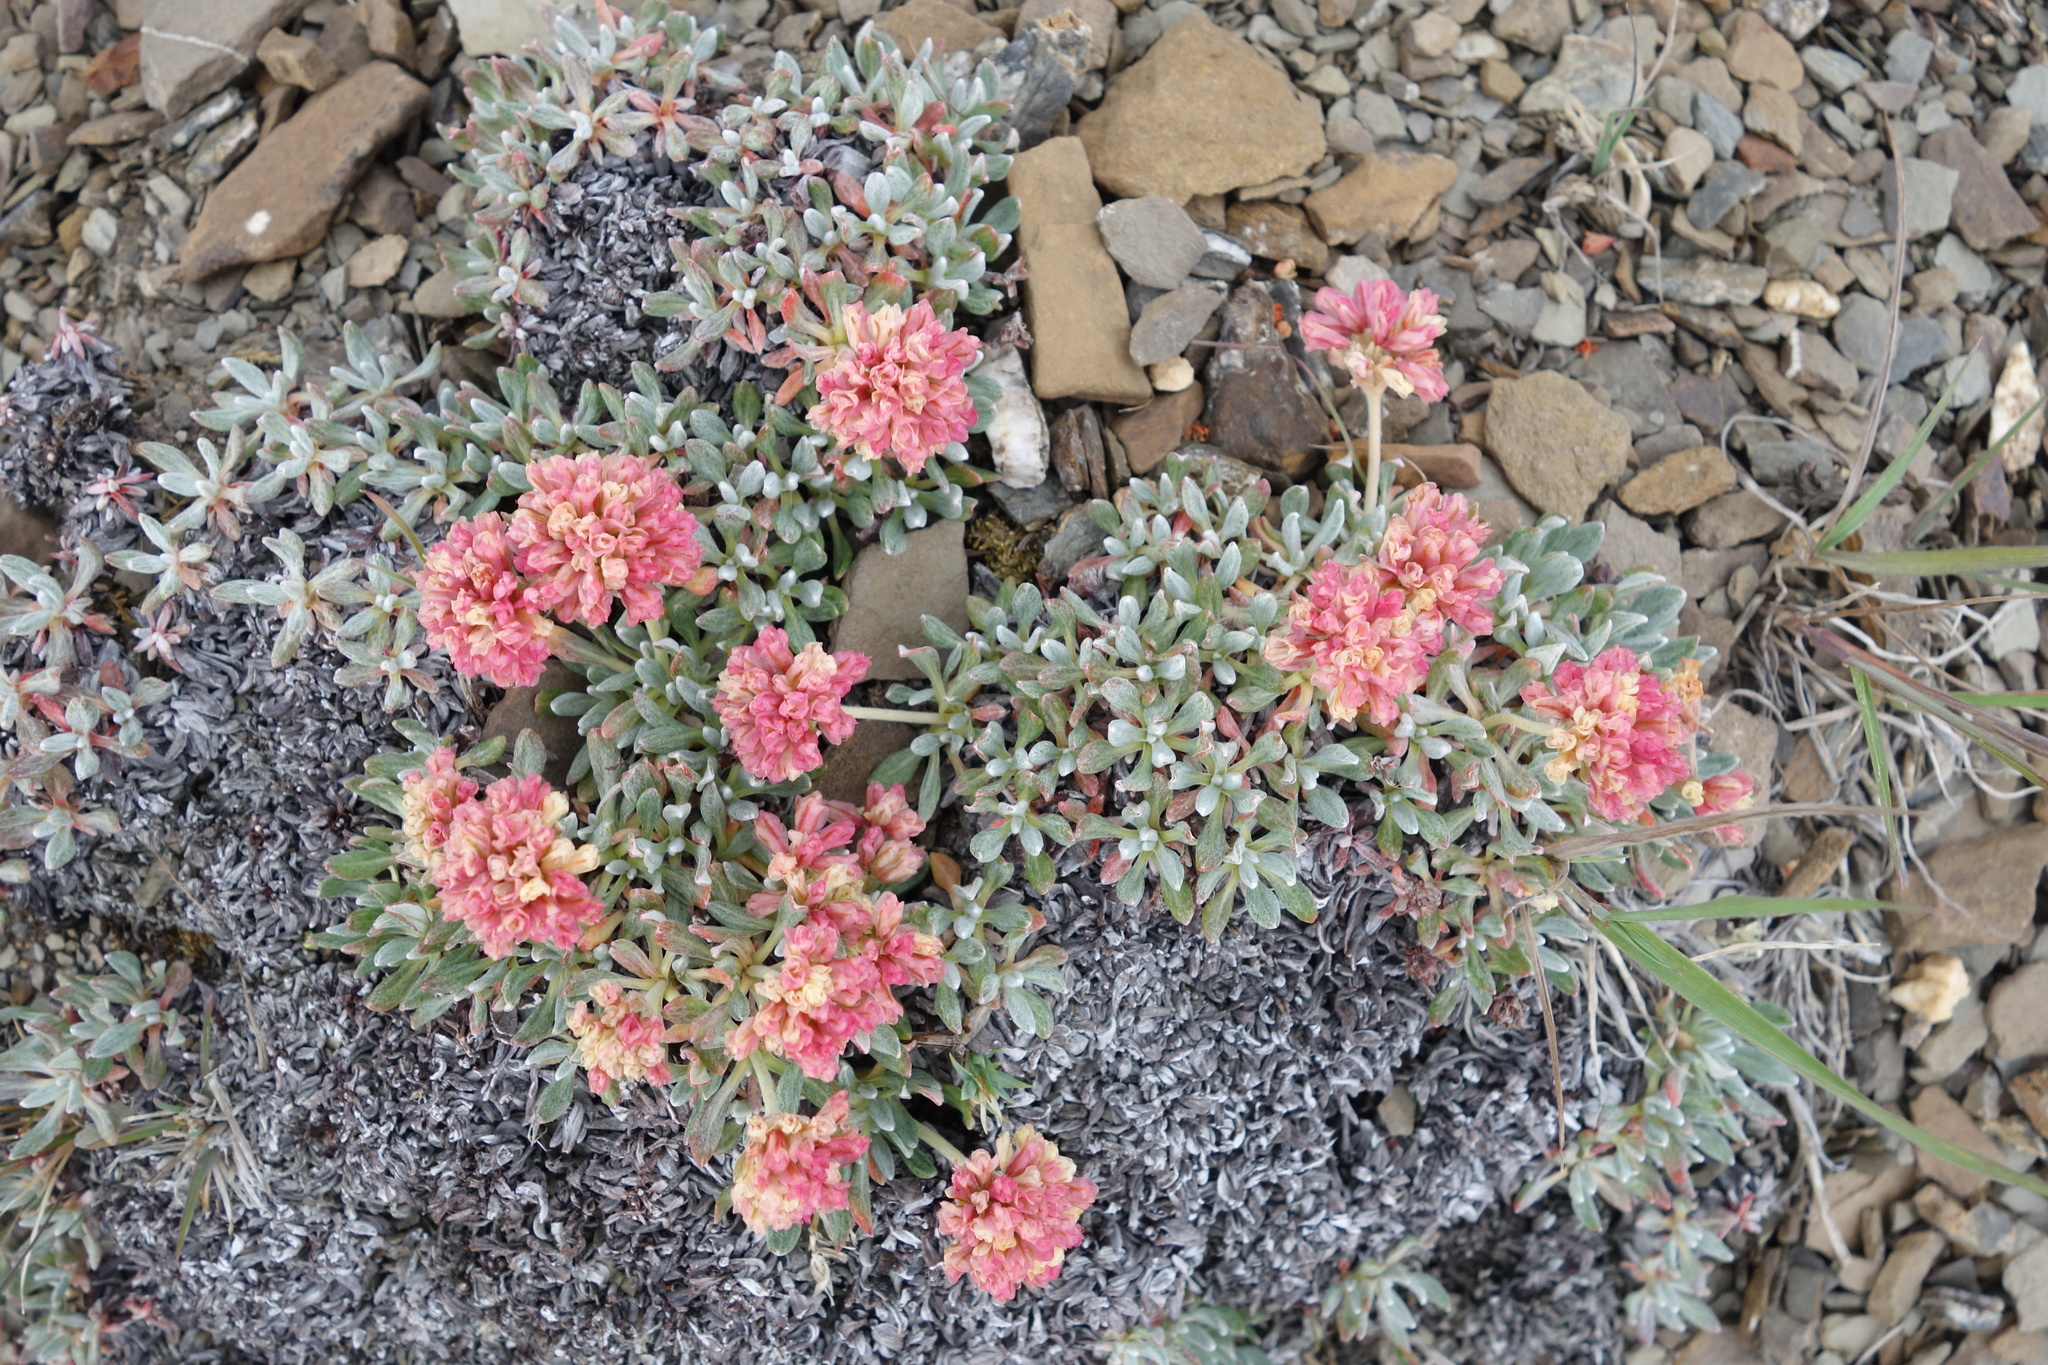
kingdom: Plantae
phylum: Tracheophyta
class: Magnoliopsida
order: Caryophyllales
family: Polygonaceae
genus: Eriogonum
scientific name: Eriogonum androsaceum
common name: Rock-jasmine wild buckwheat
